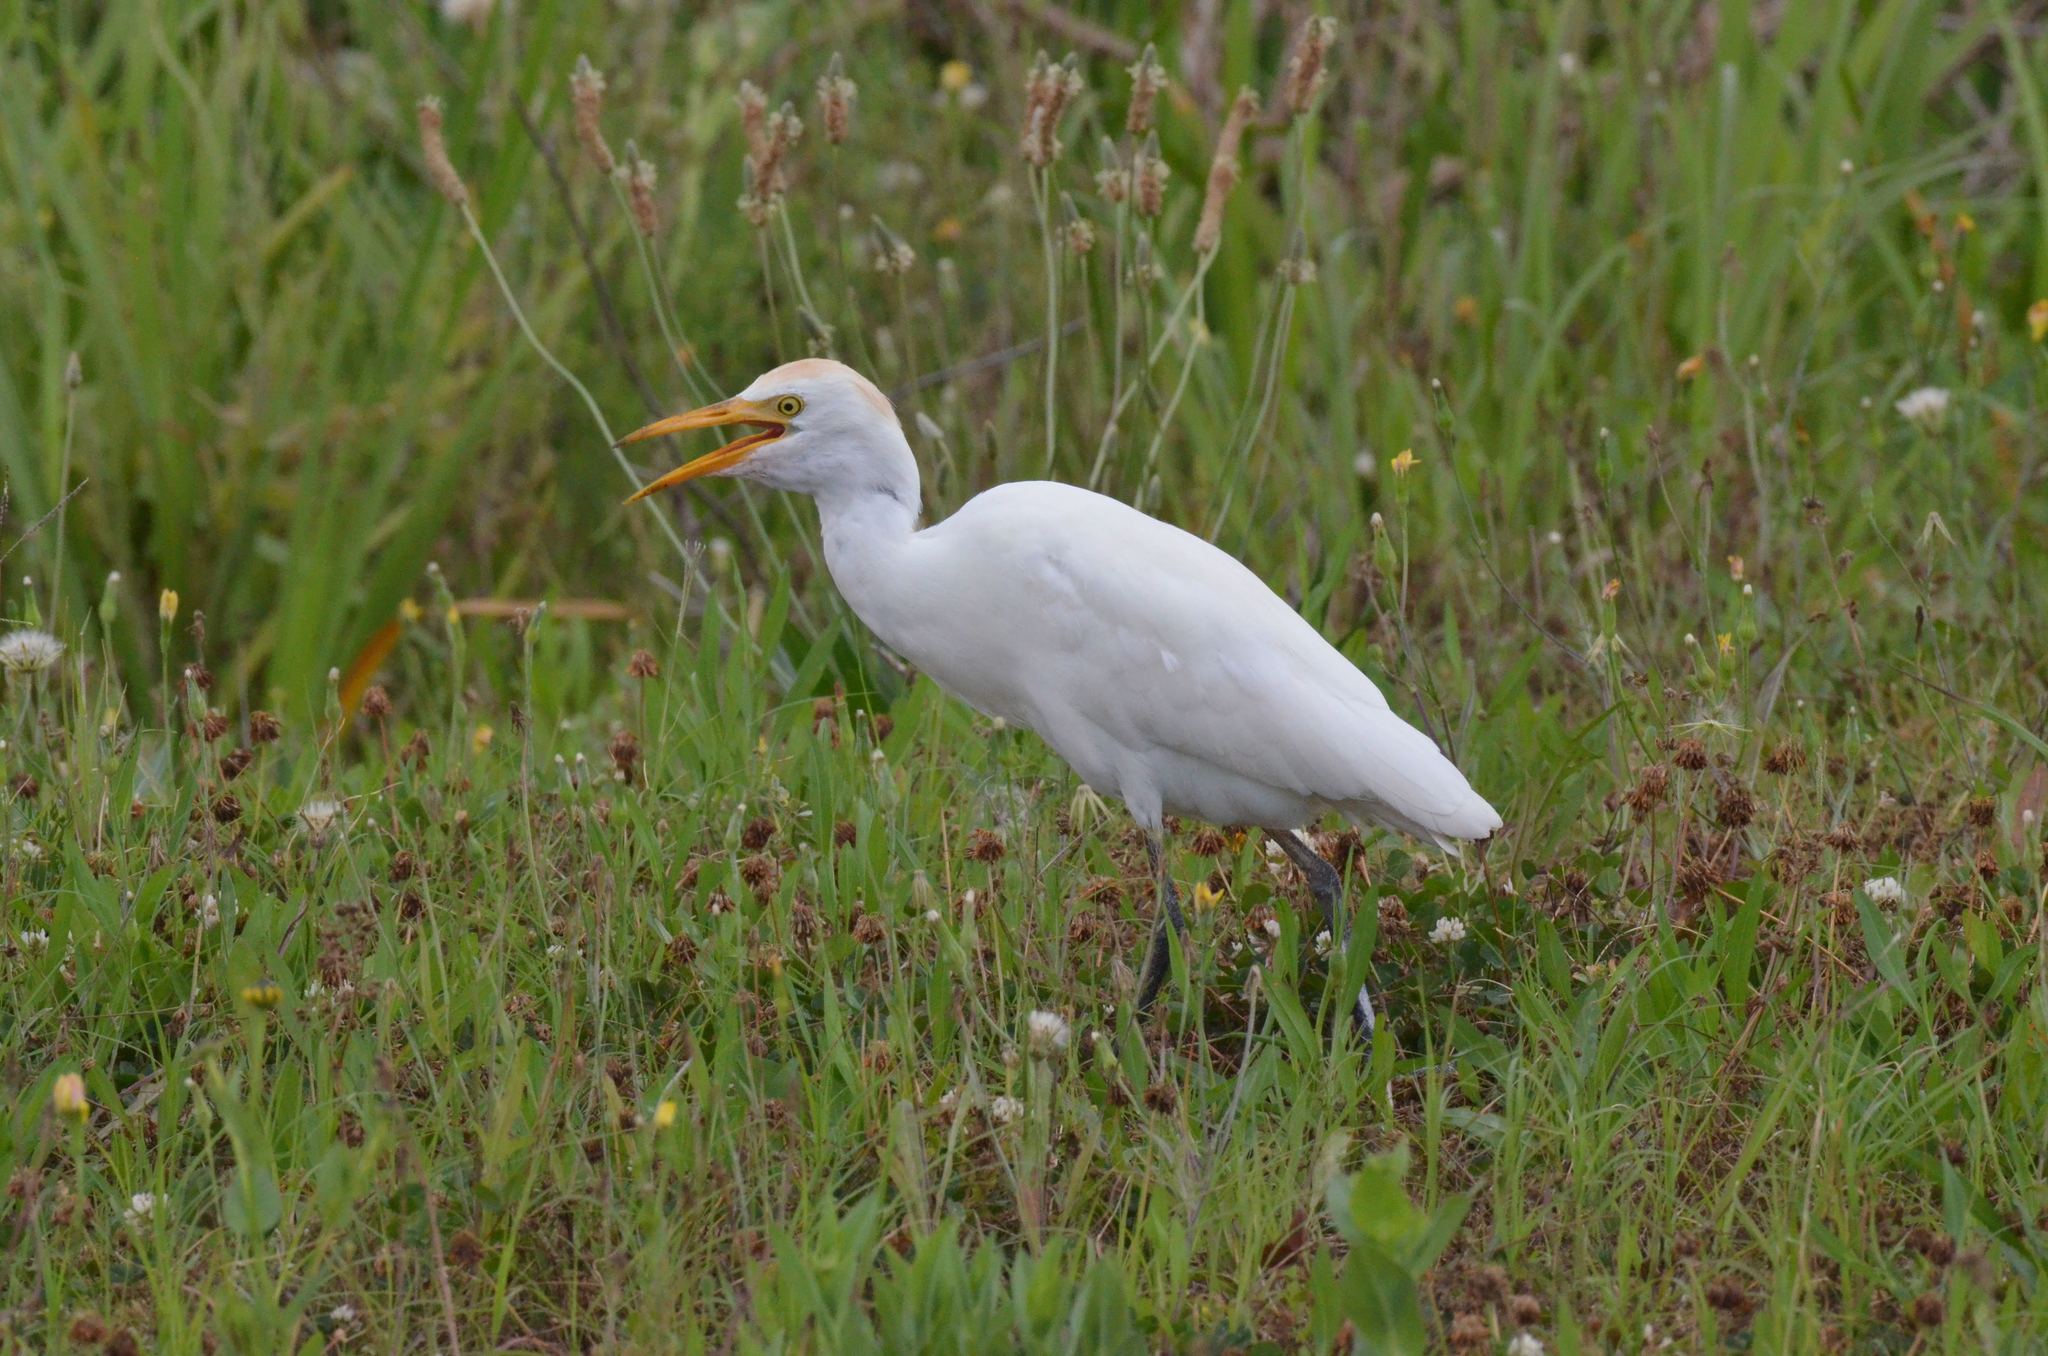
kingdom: Animalia
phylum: Chordata
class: Aves
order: Pelecaniformes
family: Ardeidae
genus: Bubulcus
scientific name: Bubulcus ibis
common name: Cattle egret
